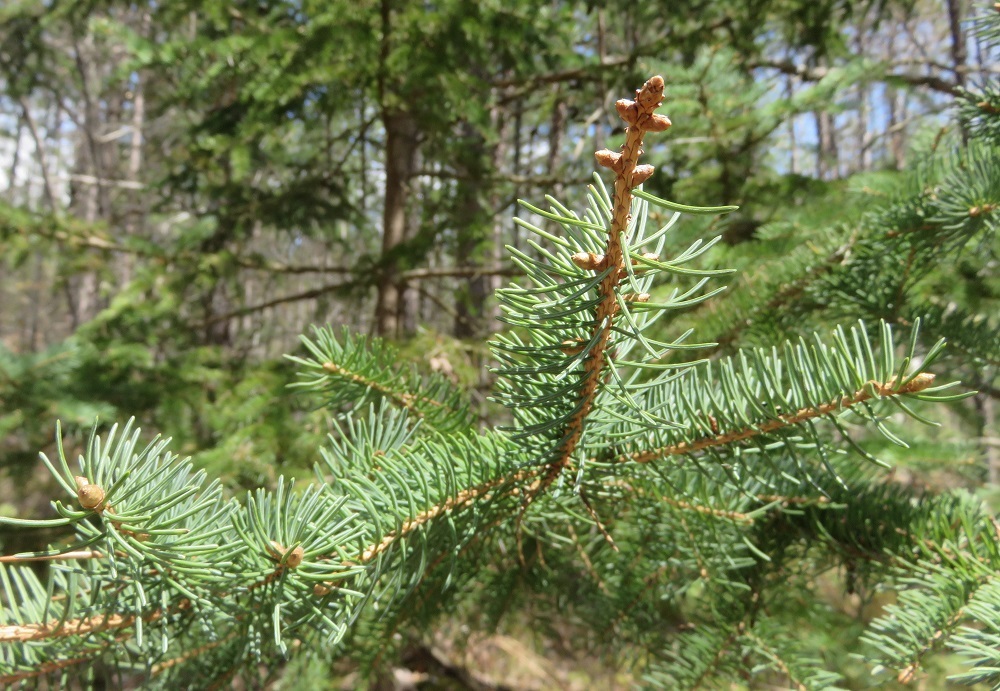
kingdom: Plantae
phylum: Tracheophyta
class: Pinopsida
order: Pinales
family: Pinaceae
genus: Picea
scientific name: Picea glauca
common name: White spruce
